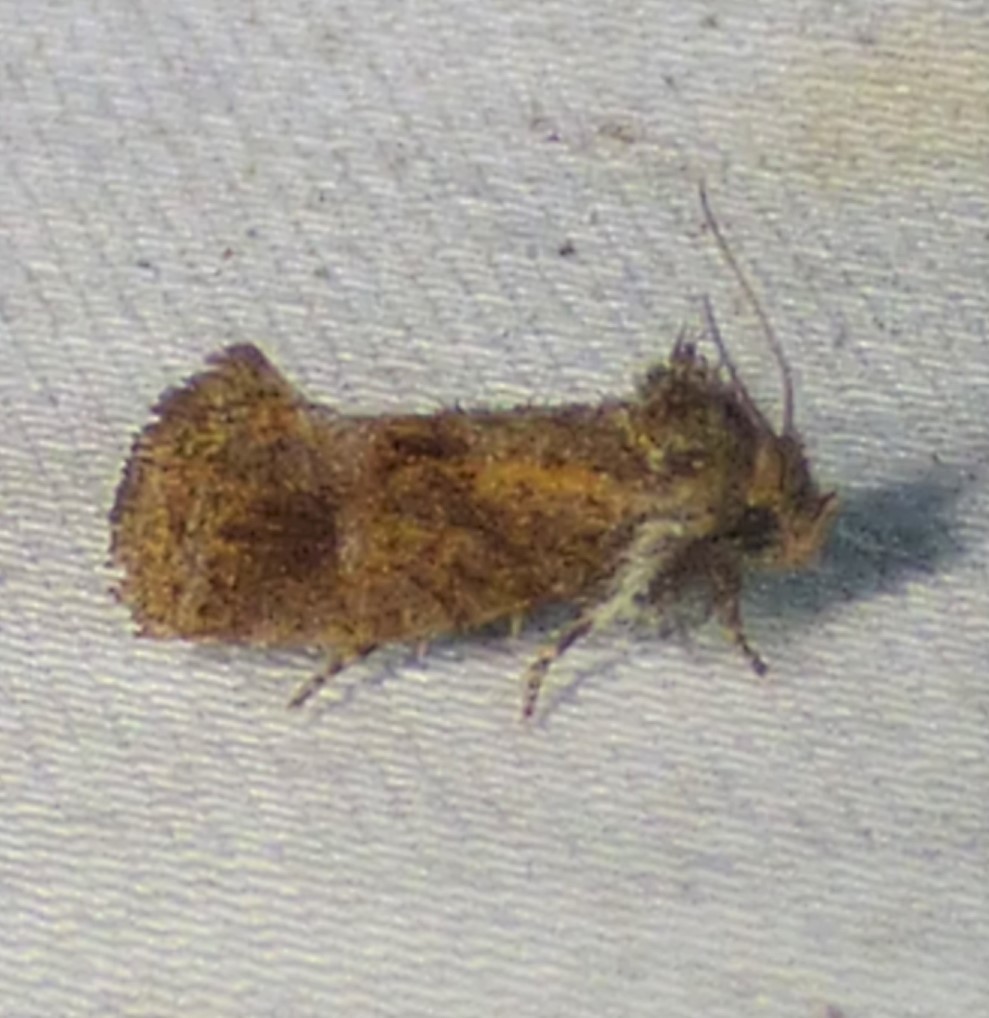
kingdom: Animalia
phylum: Arthropoda
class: Insecta
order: Lepidoptera
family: Tineidae
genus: Acrolophus
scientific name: Acrolophus panamae
